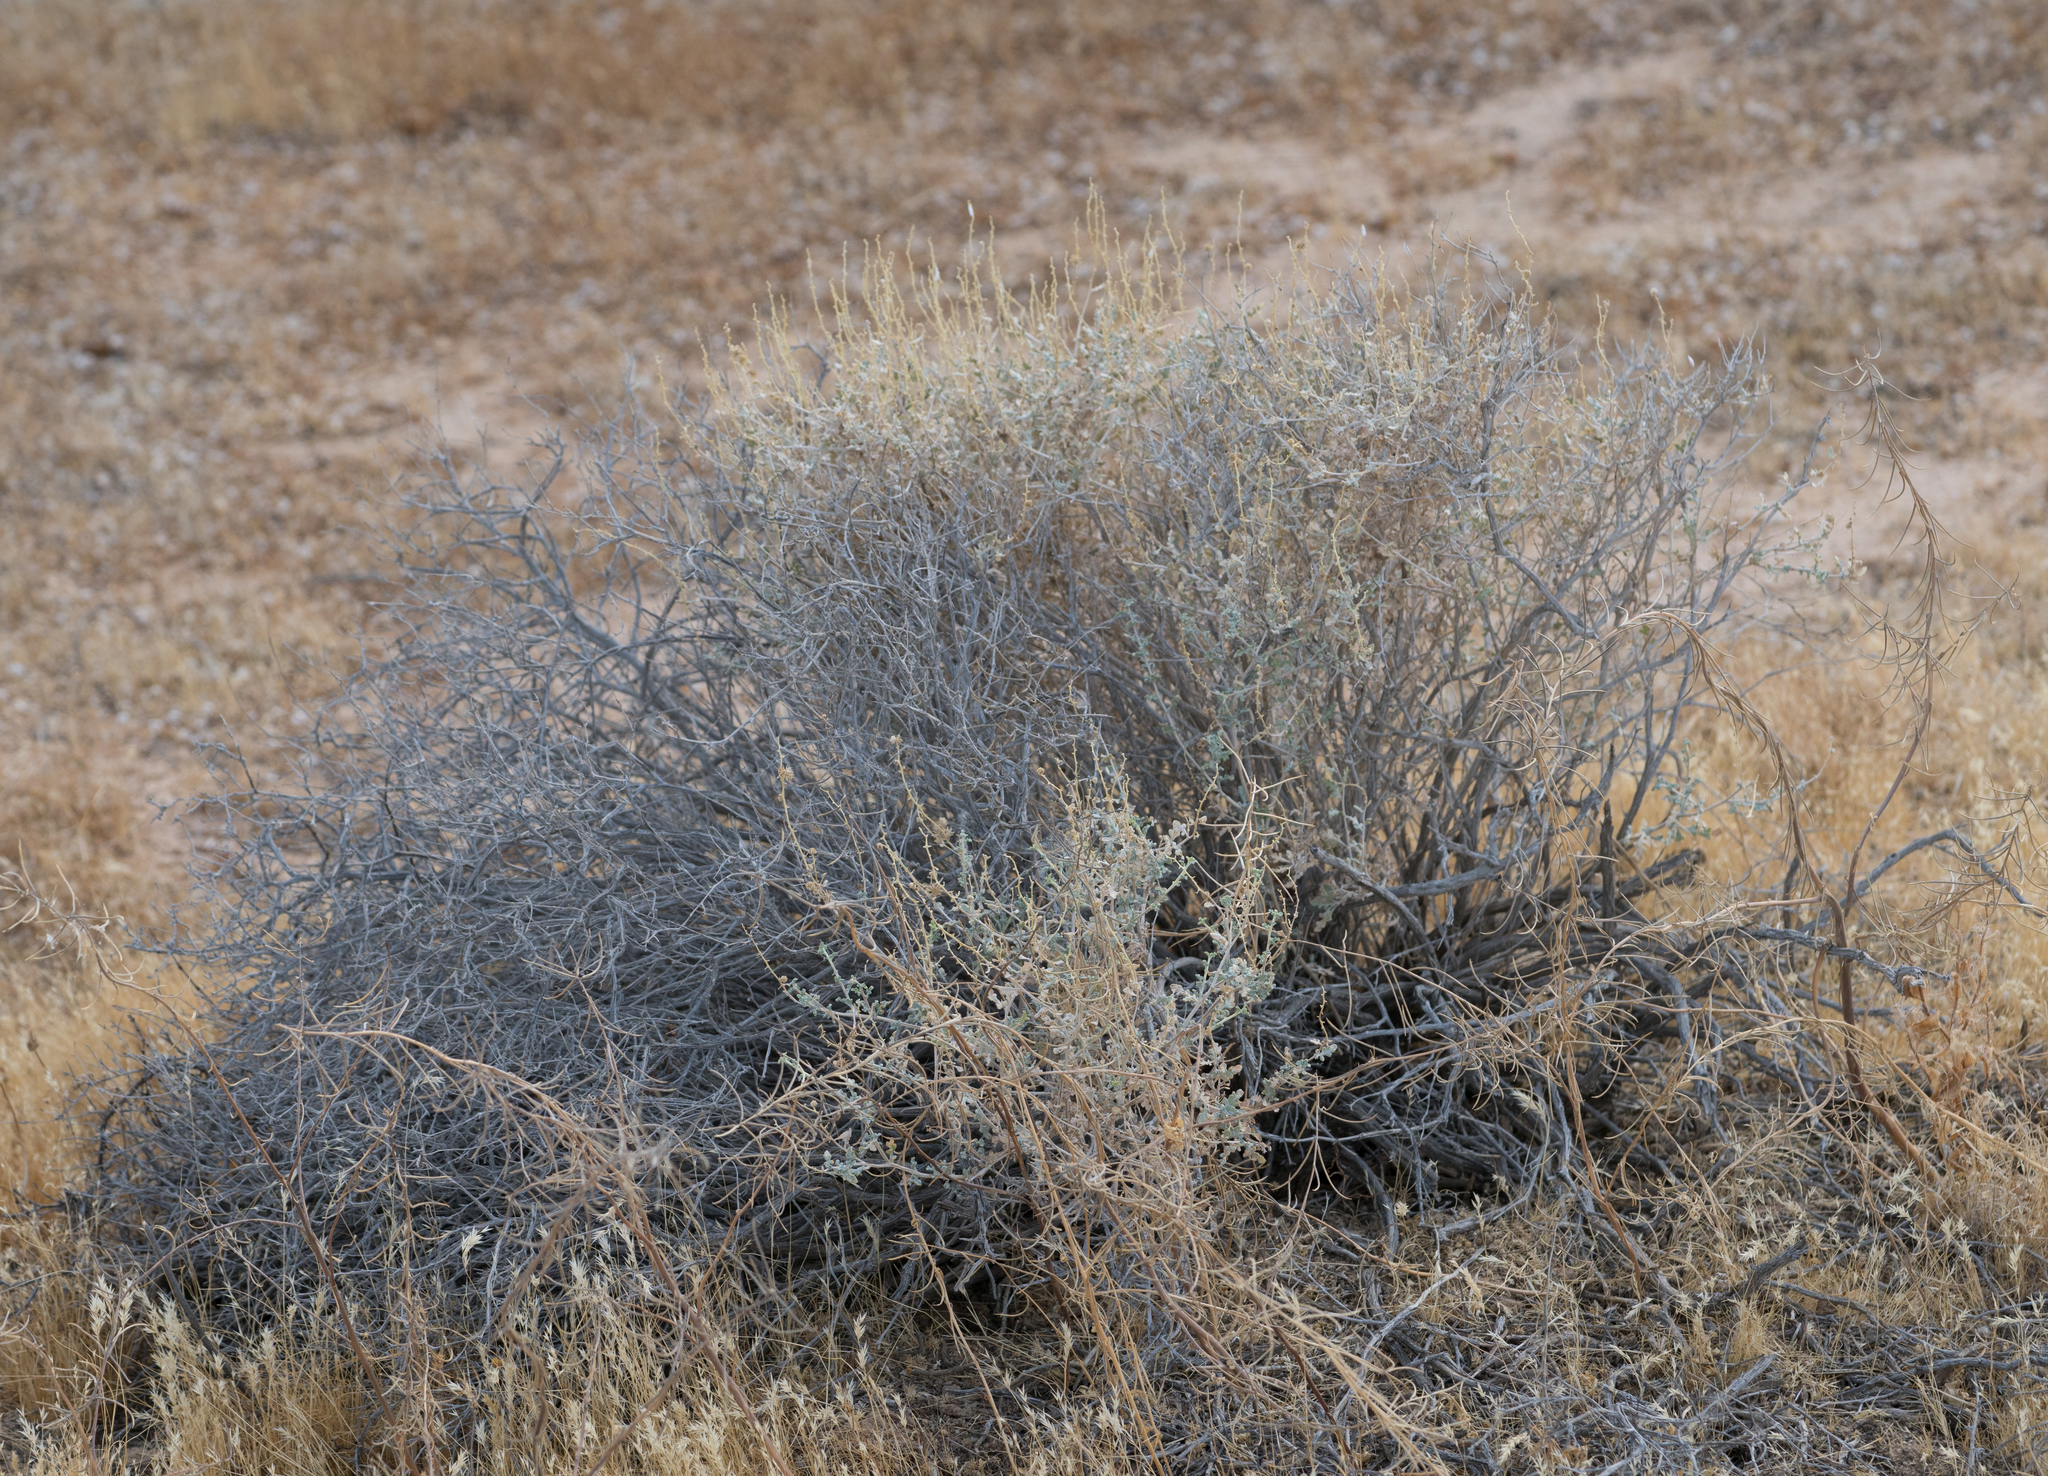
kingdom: Plantae
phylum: Tracheophyta
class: Magnoliopsida
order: Asterales
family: Asteraceae
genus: Ambrosia
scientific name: Ambrosia dumosa
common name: Bur-sage
